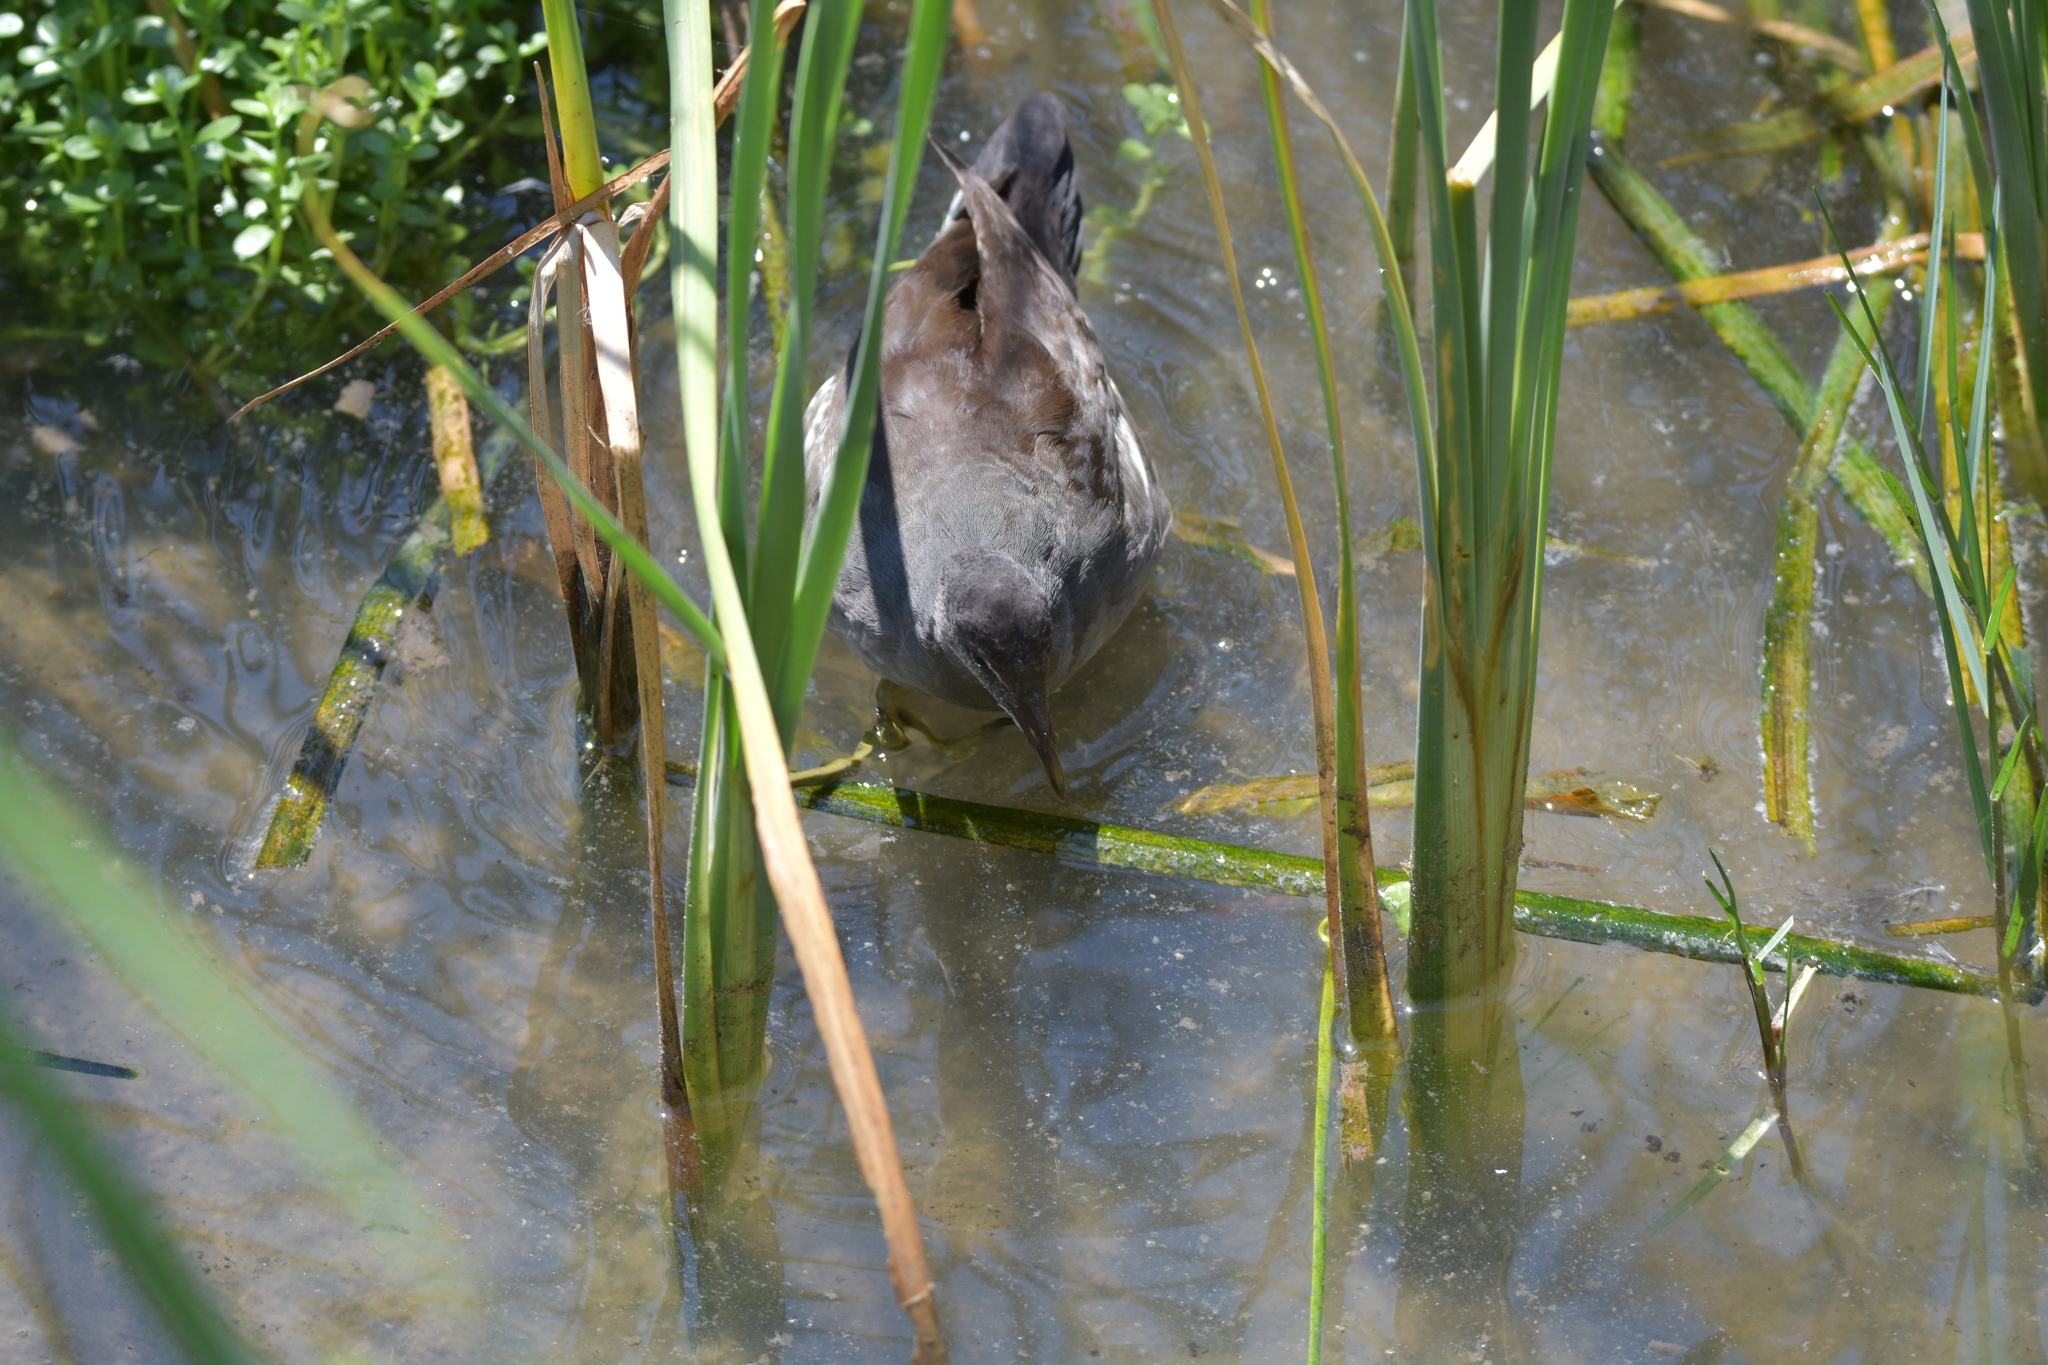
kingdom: Animalia
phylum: Chordata
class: Aves
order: Gruiformes
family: Rallidae
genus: Gallinula
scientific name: Gallinula chloropus
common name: Common moorhen
